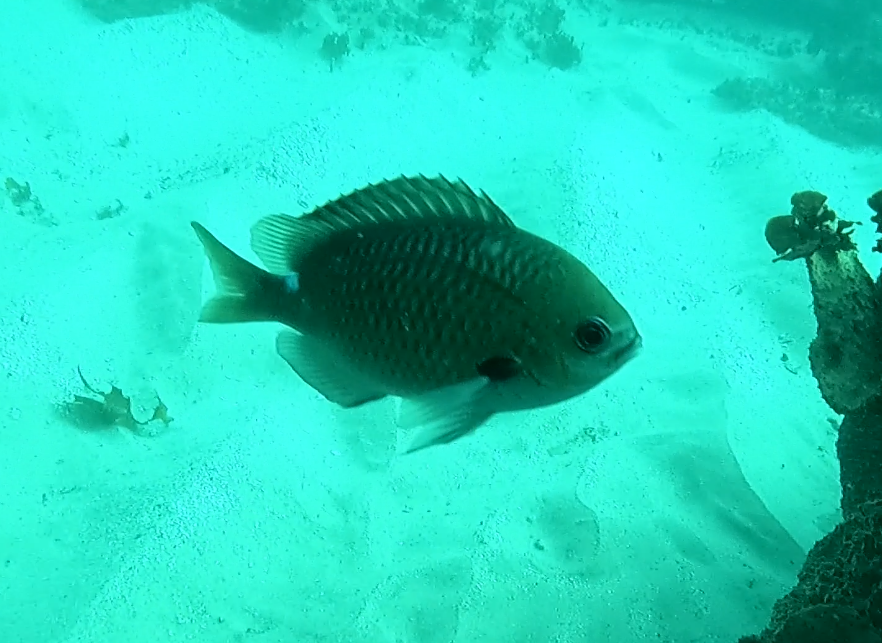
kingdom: Animalia
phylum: Chordata
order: Perciformes
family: Pomacentridae
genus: Chromis
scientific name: Chromis hypsilepis
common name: Brown puller
